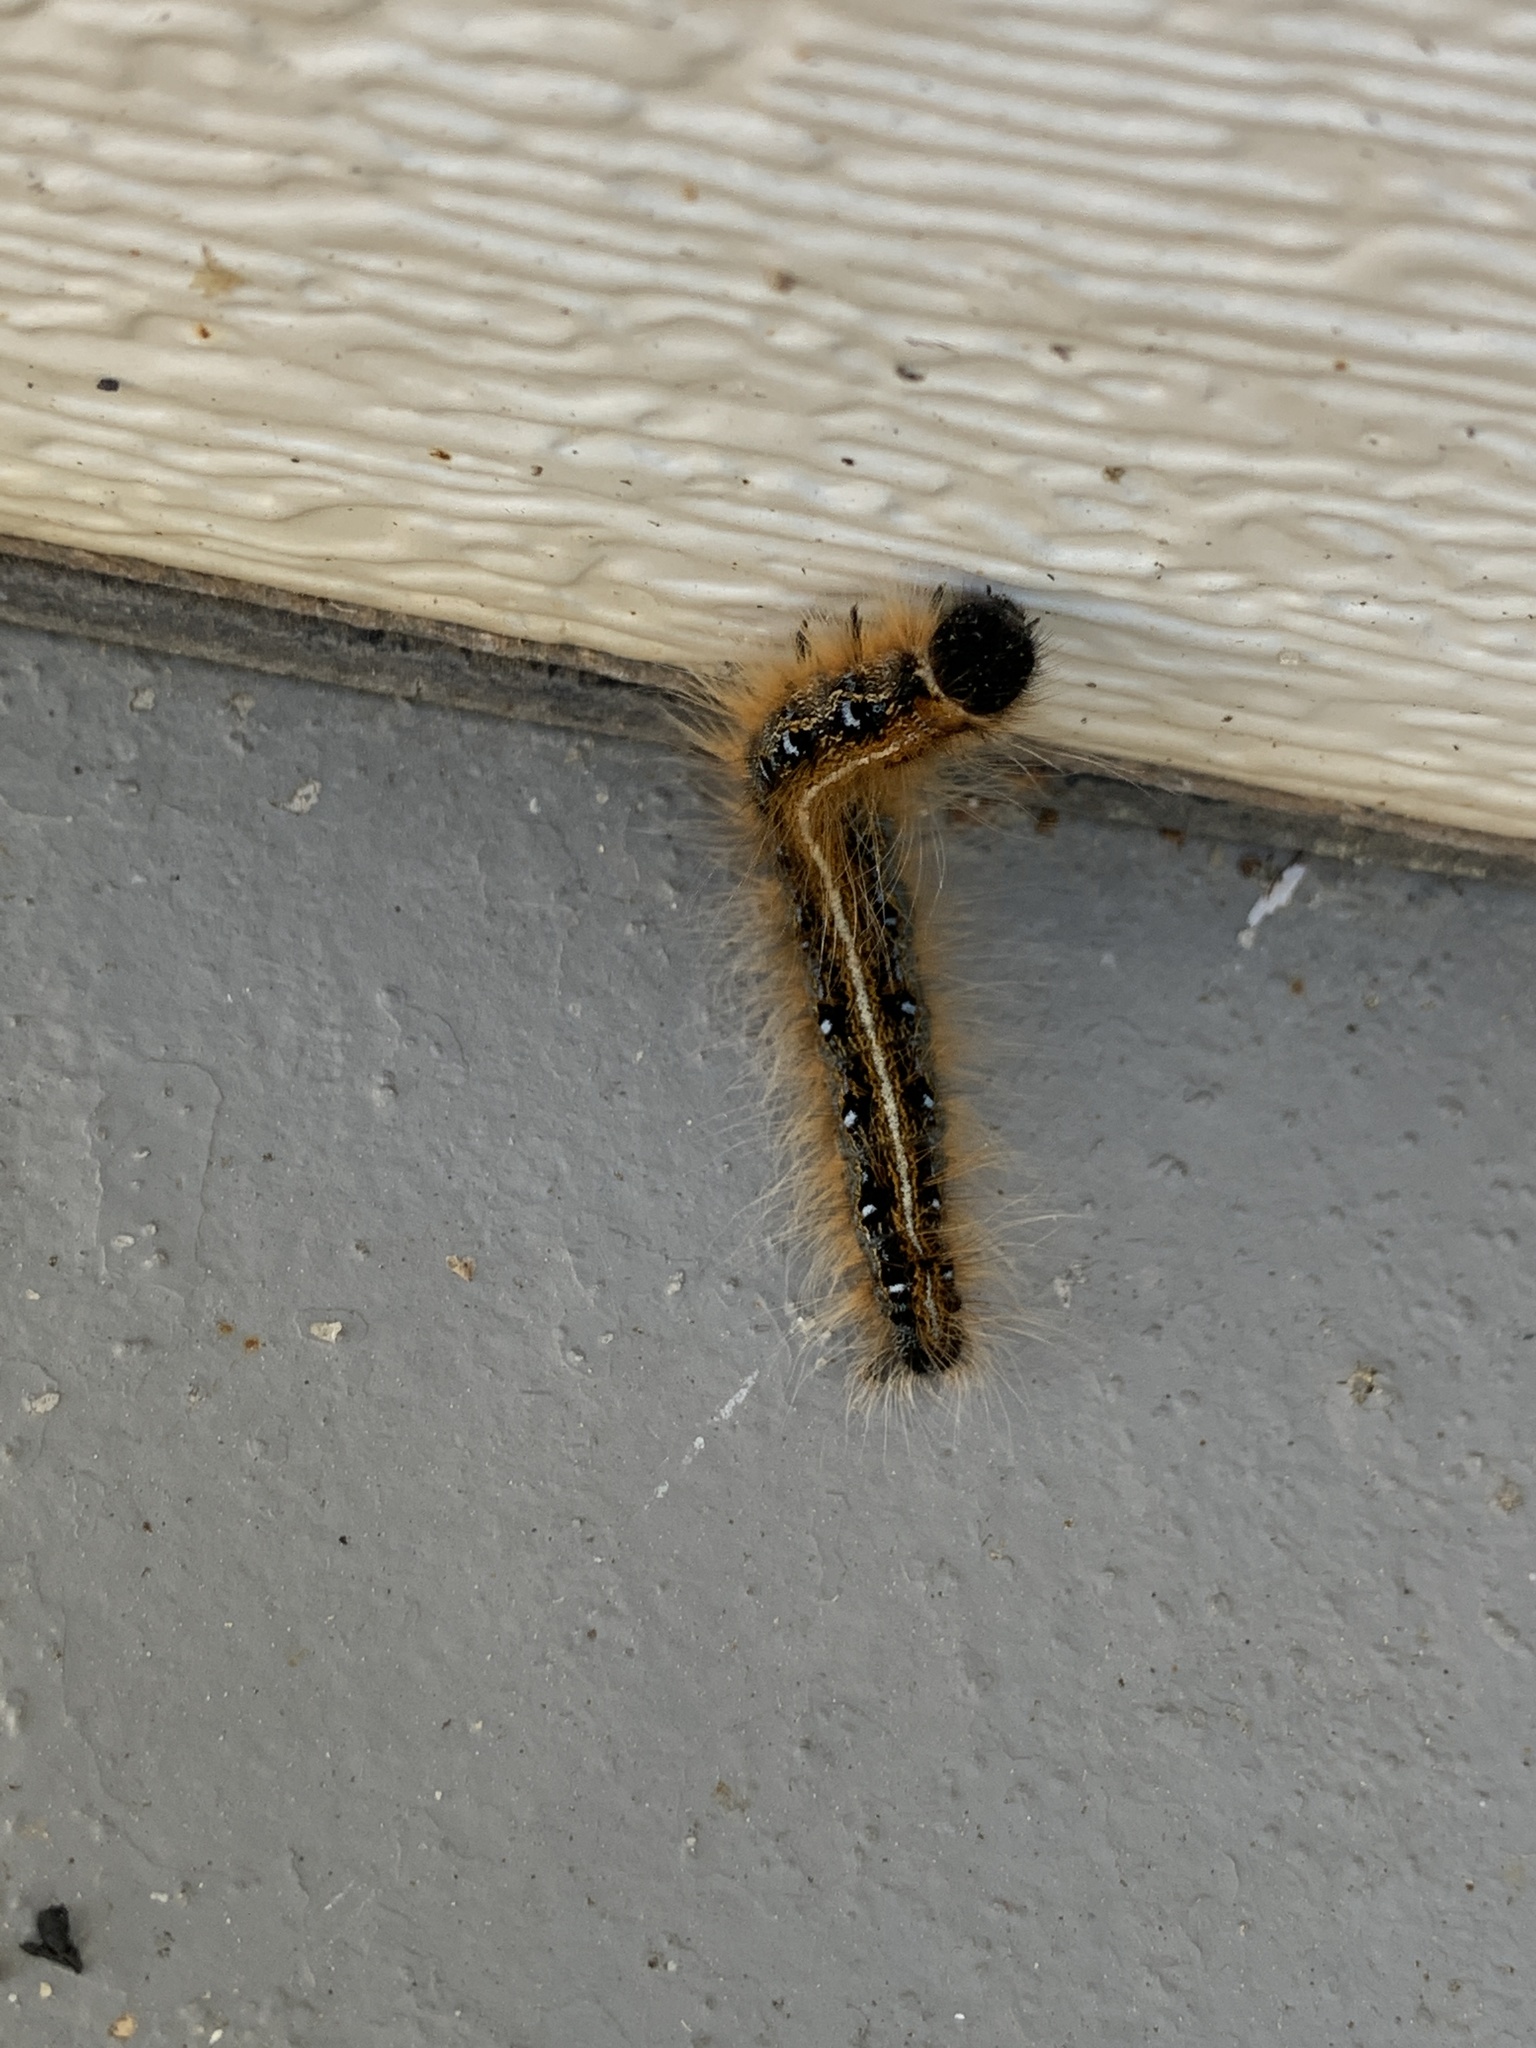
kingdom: Animalia
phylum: Arthropoda
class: Insecta
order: Lepidoptera
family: Lasiocampidae
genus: Malacosoma
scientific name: Malacosoma americana
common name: Eastern tent caterpillar moth
